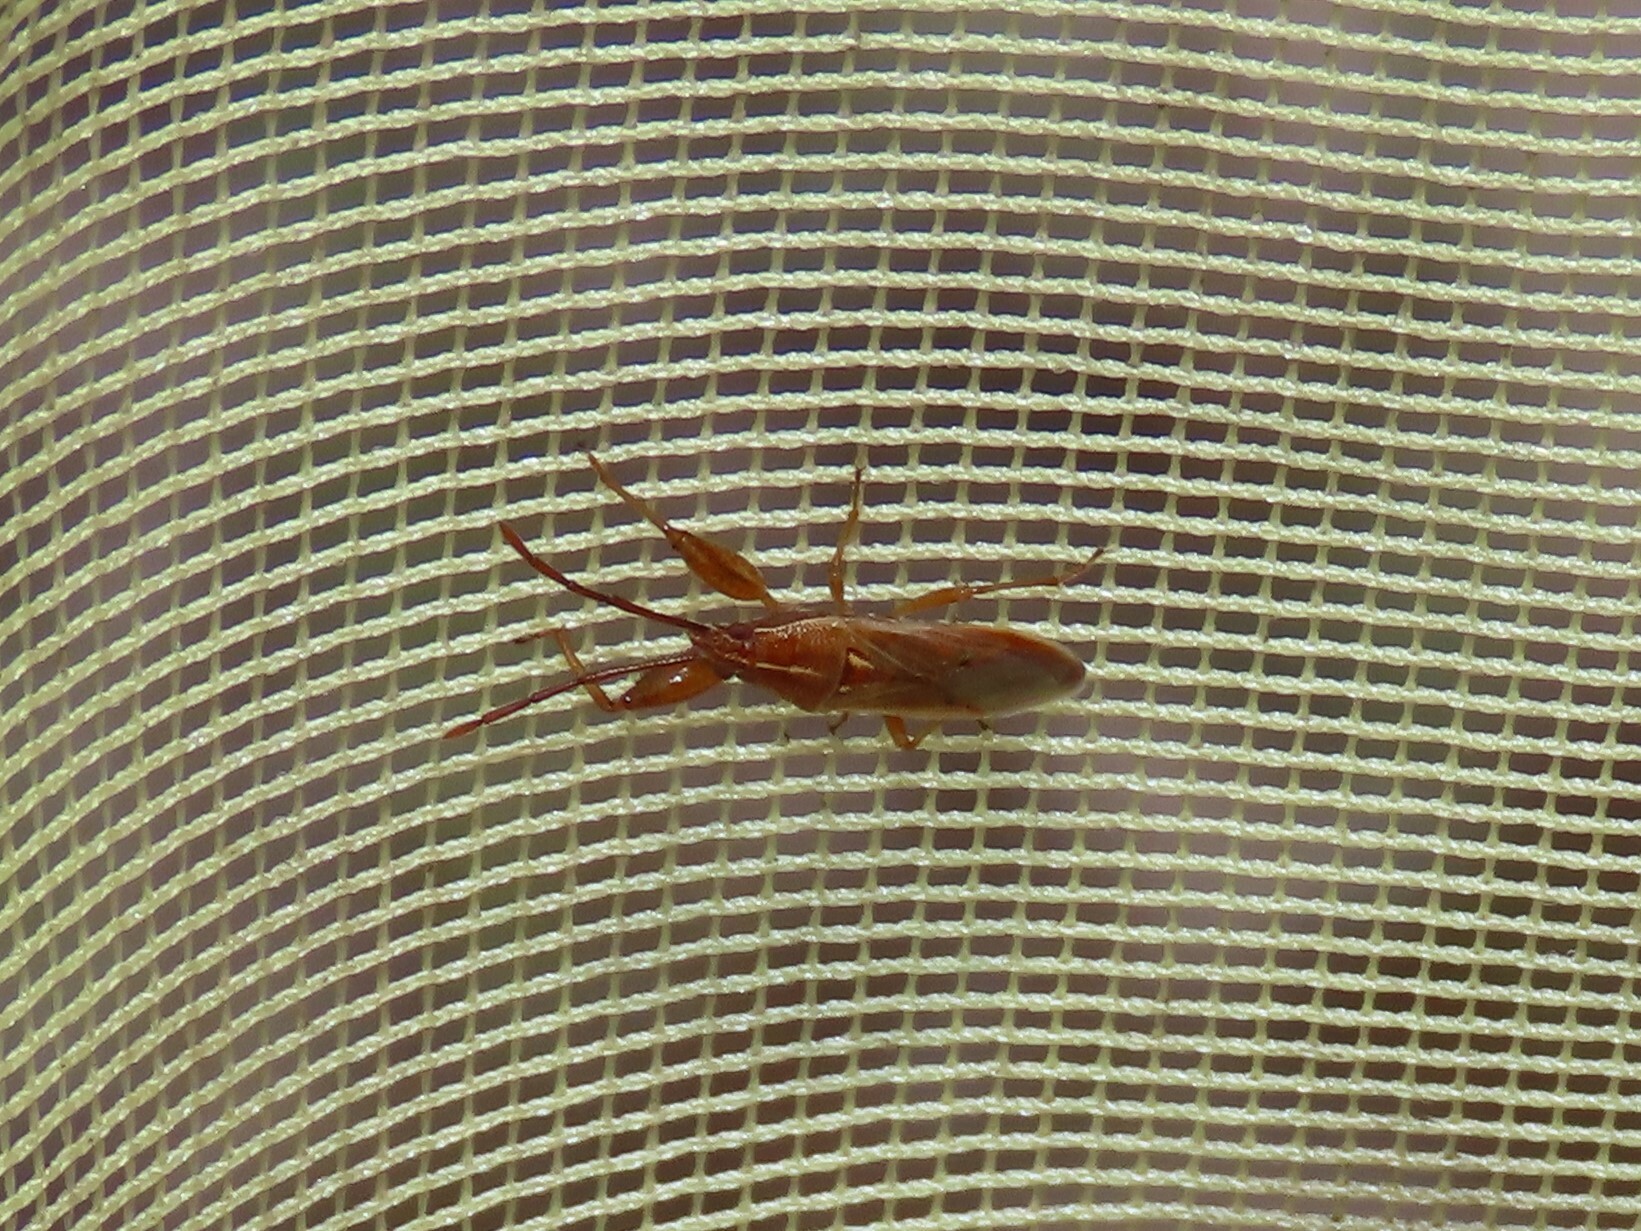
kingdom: Animalia
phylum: Arthropoda
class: Insecta
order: Hemiptera
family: Pachygronthidae
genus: Oedancala
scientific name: Oedancala crassimana
